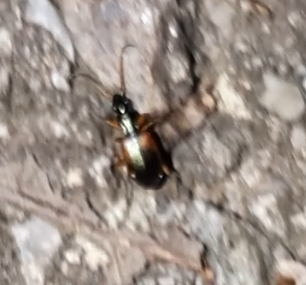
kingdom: Animalia
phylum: Arthropoda
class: Insecta
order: Coleoptera
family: Carabidae
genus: Anchomenus
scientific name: Anchomenus dorsalis
